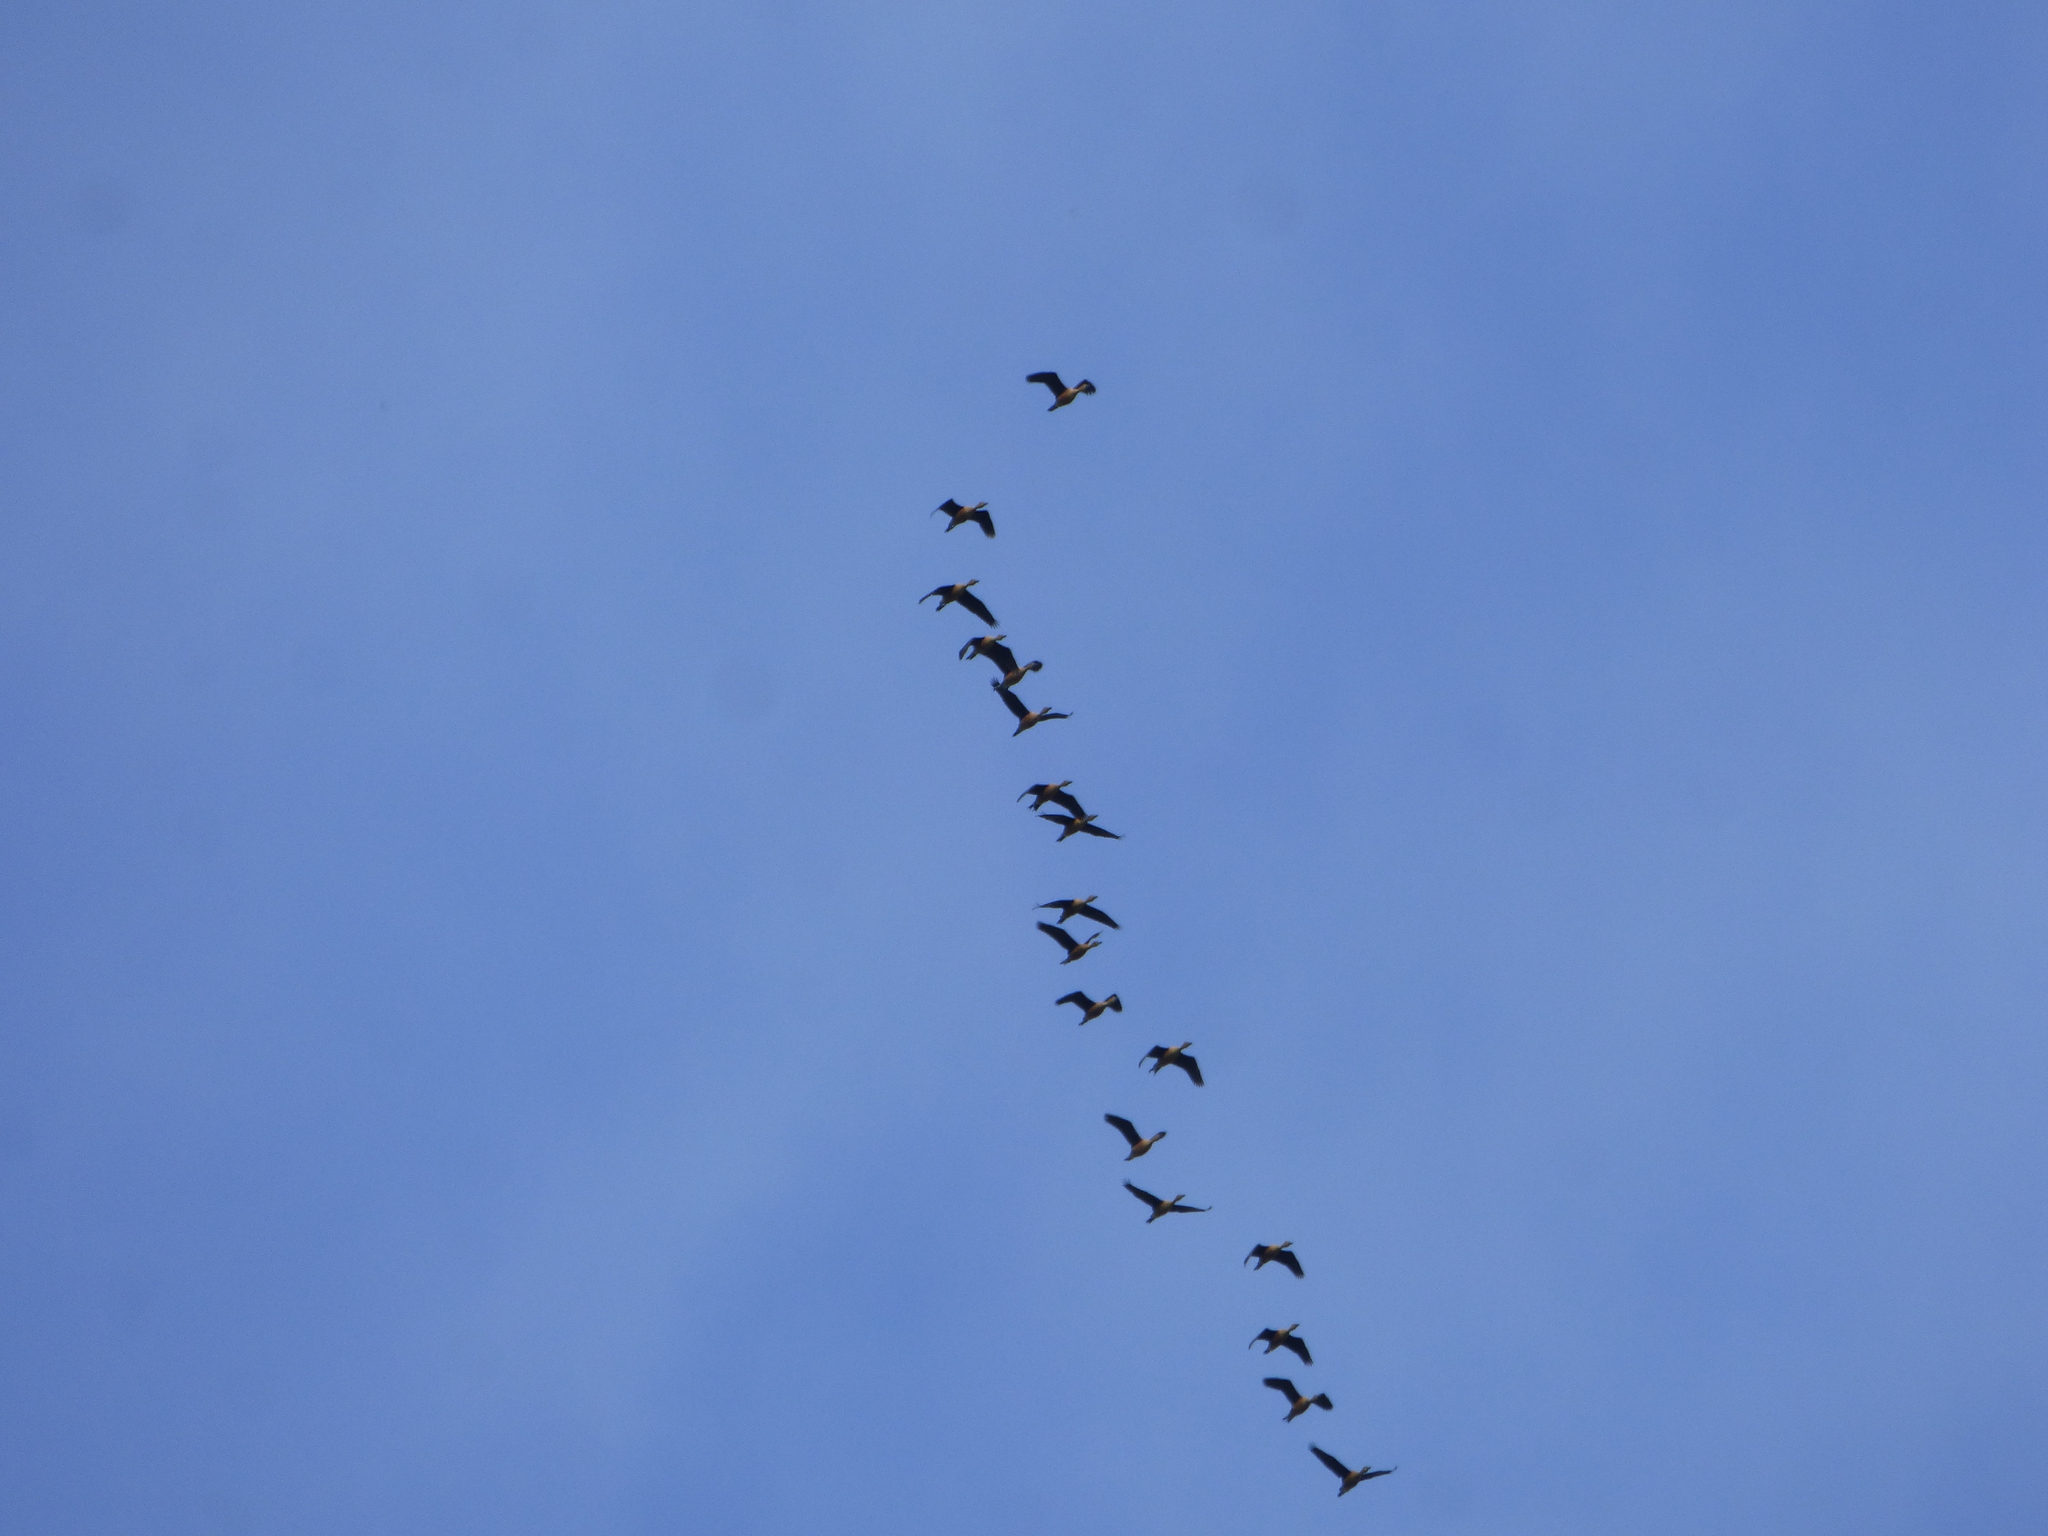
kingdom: Animalia
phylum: Chordata
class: Aves
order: Anseriformes
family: Anatidae
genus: Dendrocygna
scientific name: Dendrocygna bicolor
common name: Fulvous whistling duck
